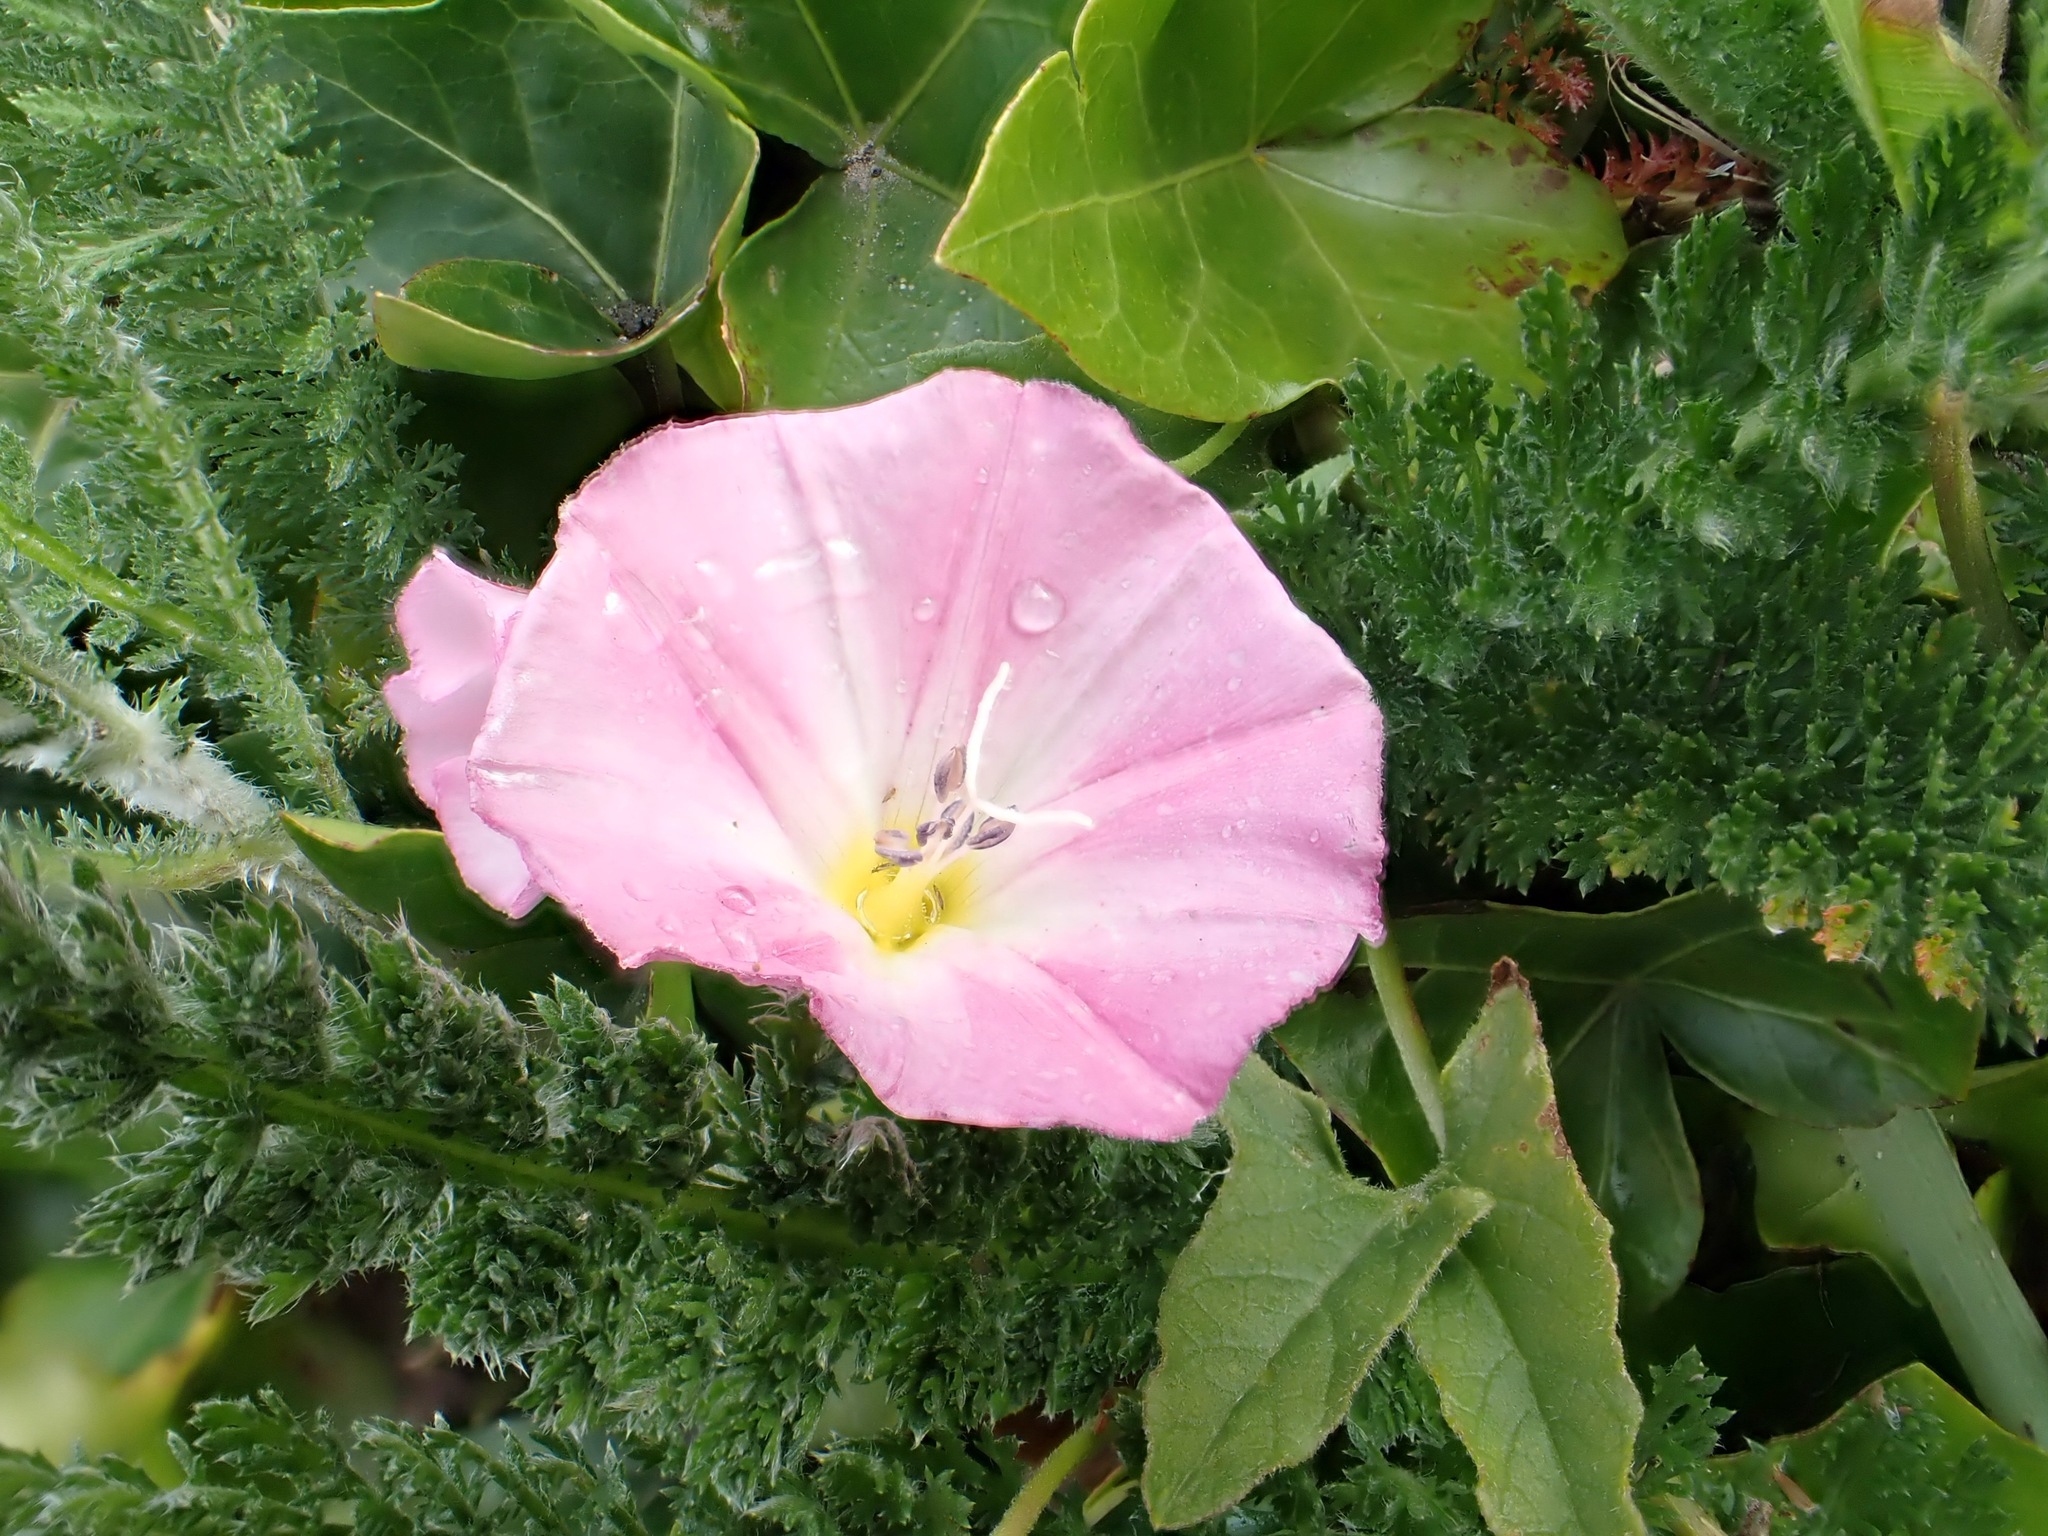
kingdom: Plantae
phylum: Tracheophyta
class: Magnoliopsida
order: Solanales
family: Convolvulaceae
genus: Convolvulus
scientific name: Convolvulus arvensis
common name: Field bindweed
